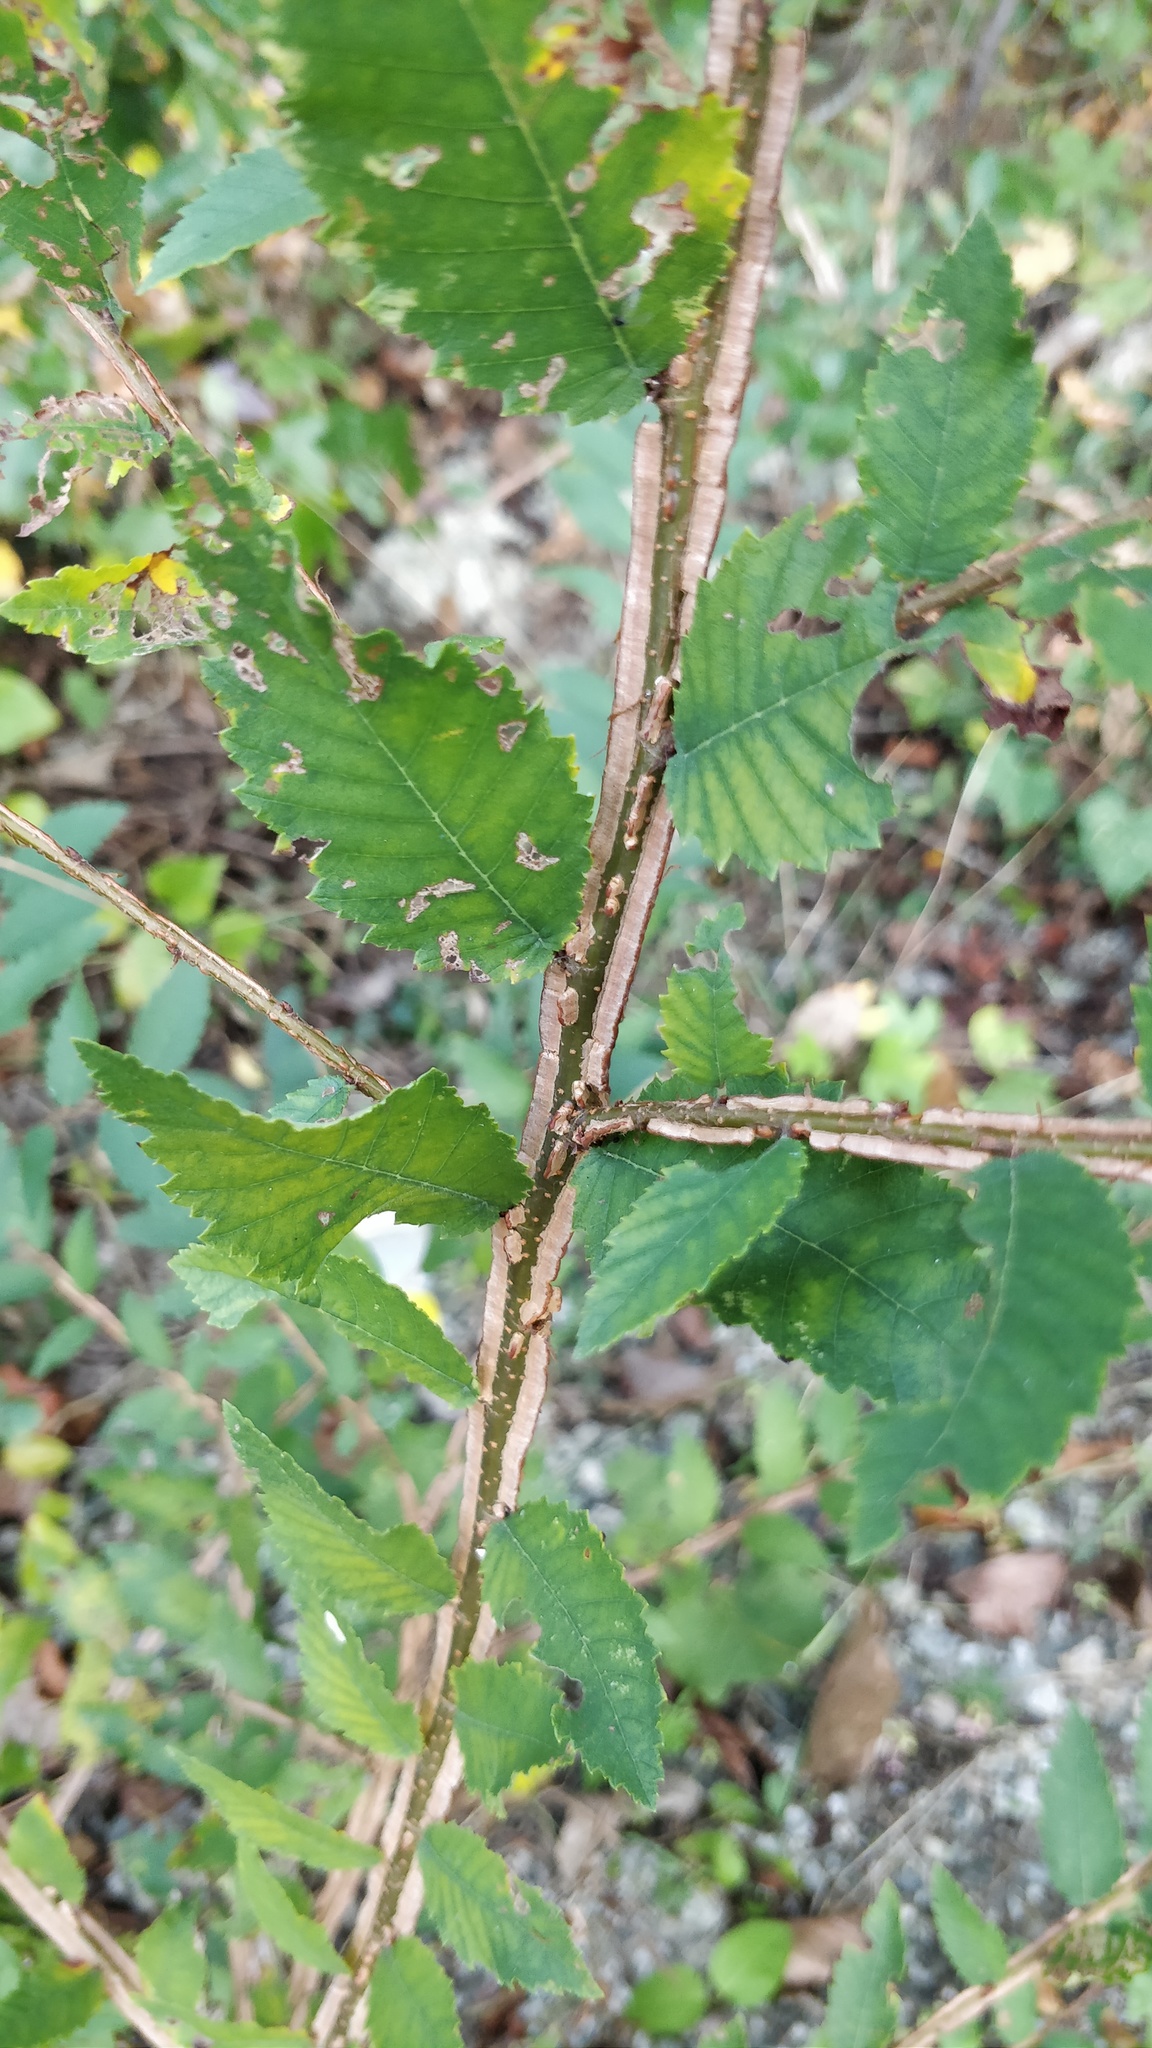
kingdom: Plantae
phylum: Tracheophyta
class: Magnoliopsida
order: Rosales
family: Ulmaceae
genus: Ulmus
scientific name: Ulmus alata
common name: Winged elm
